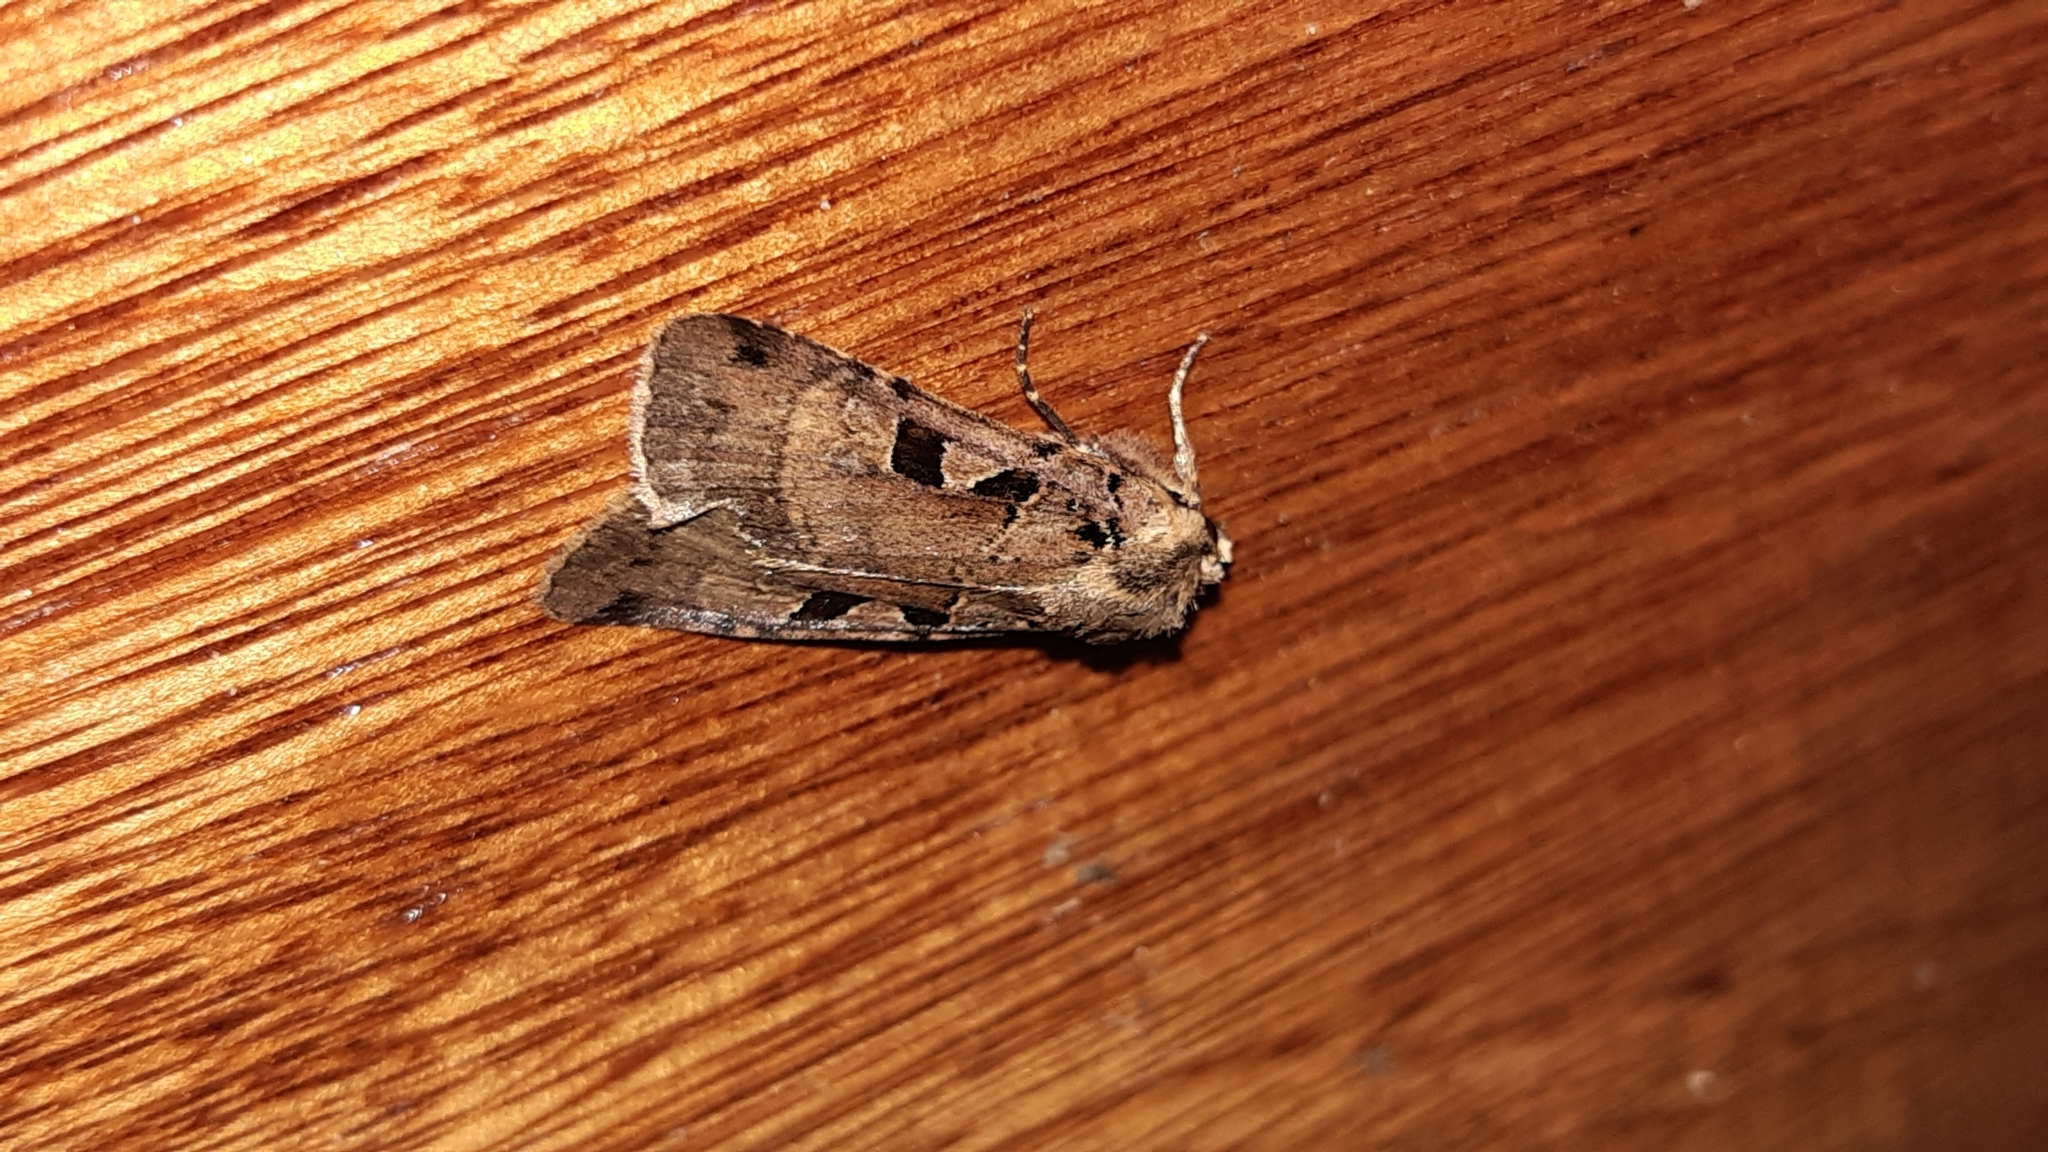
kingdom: Animalia
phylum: Arthropoda
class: Insecta
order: Lepidoptera
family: Noctuidae
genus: Xestia
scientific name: Xestia triangulum
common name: Double square-spot
